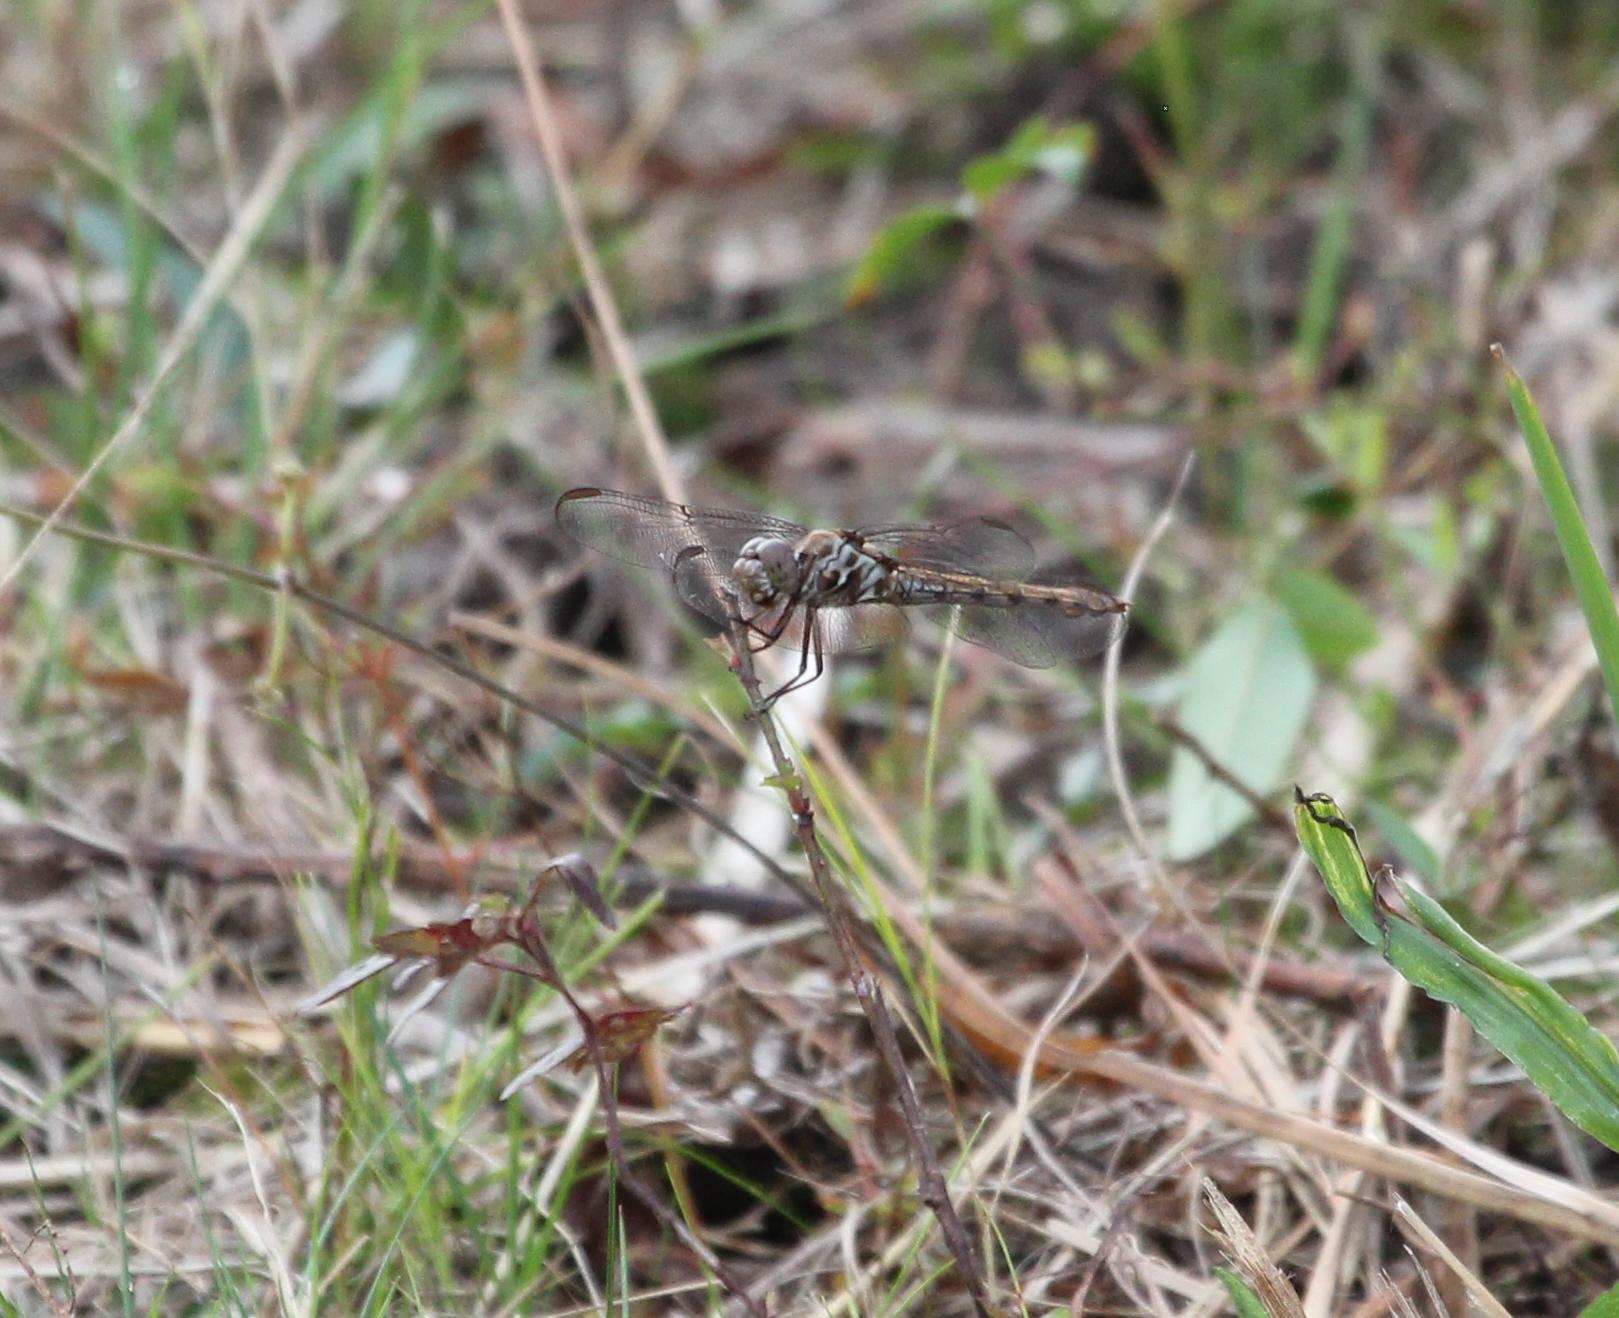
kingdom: Animalia
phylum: Arthropoda
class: Insecta
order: Odonata
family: Libellulidae
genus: Orthemis
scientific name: Orthemis ferruginea
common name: Roseate skimmer
